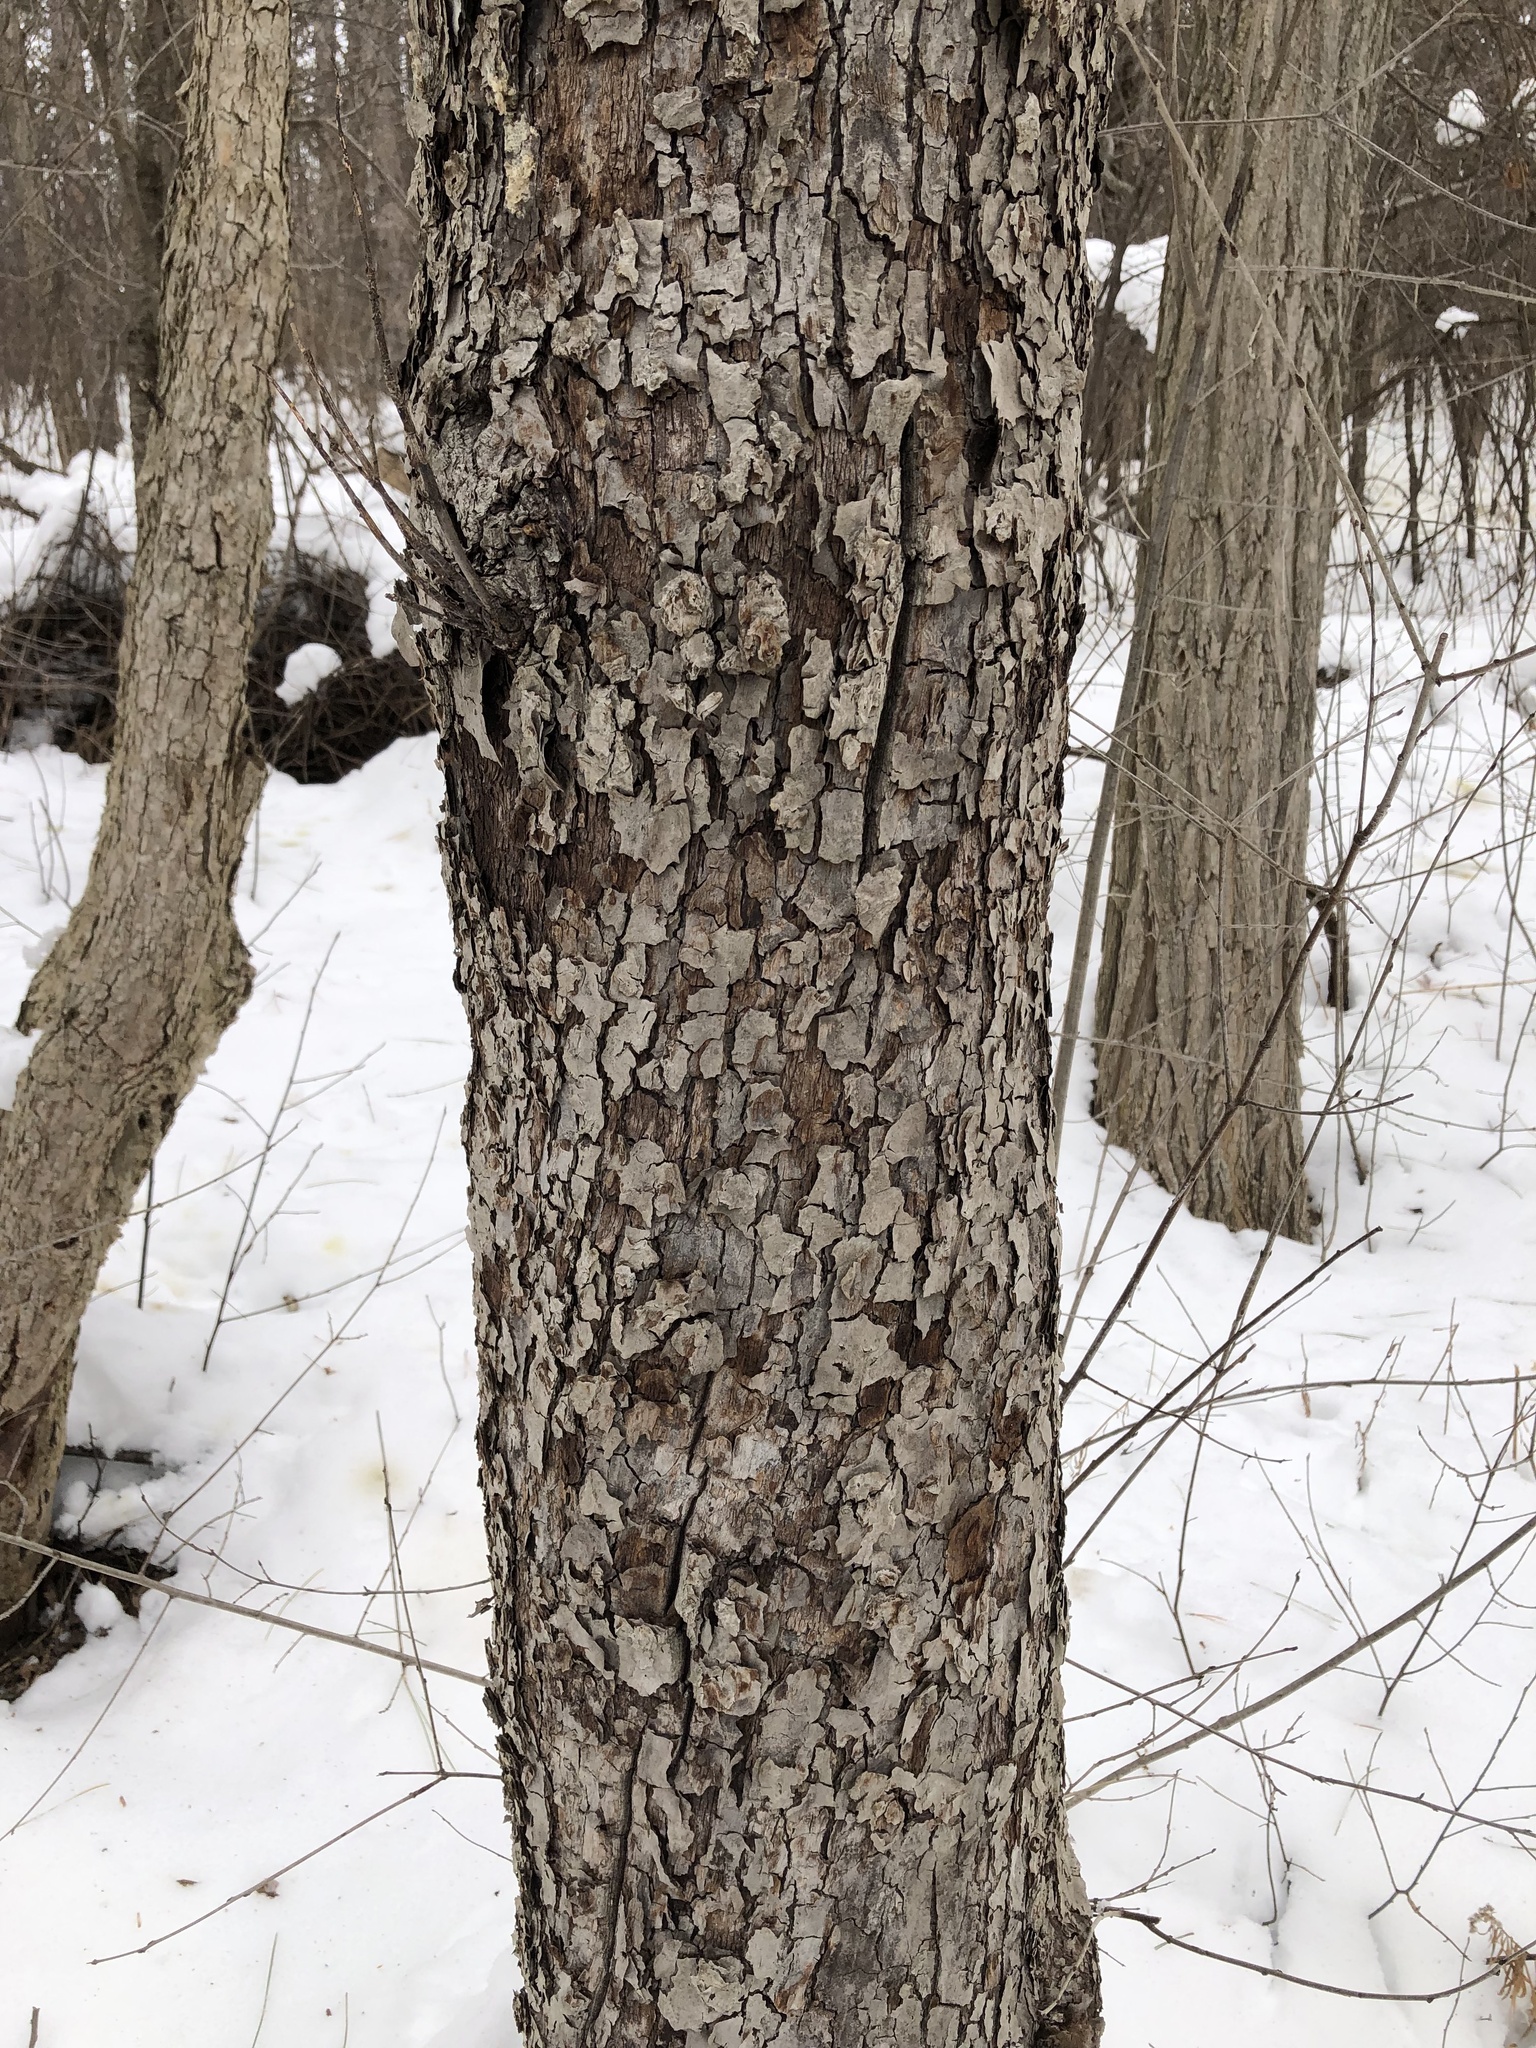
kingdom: Plantae
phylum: Tracheophyta
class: Magnoliopsida
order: Rosales
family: Rosaceae
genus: Prunus
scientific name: Prunus serotina
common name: Black cherry
